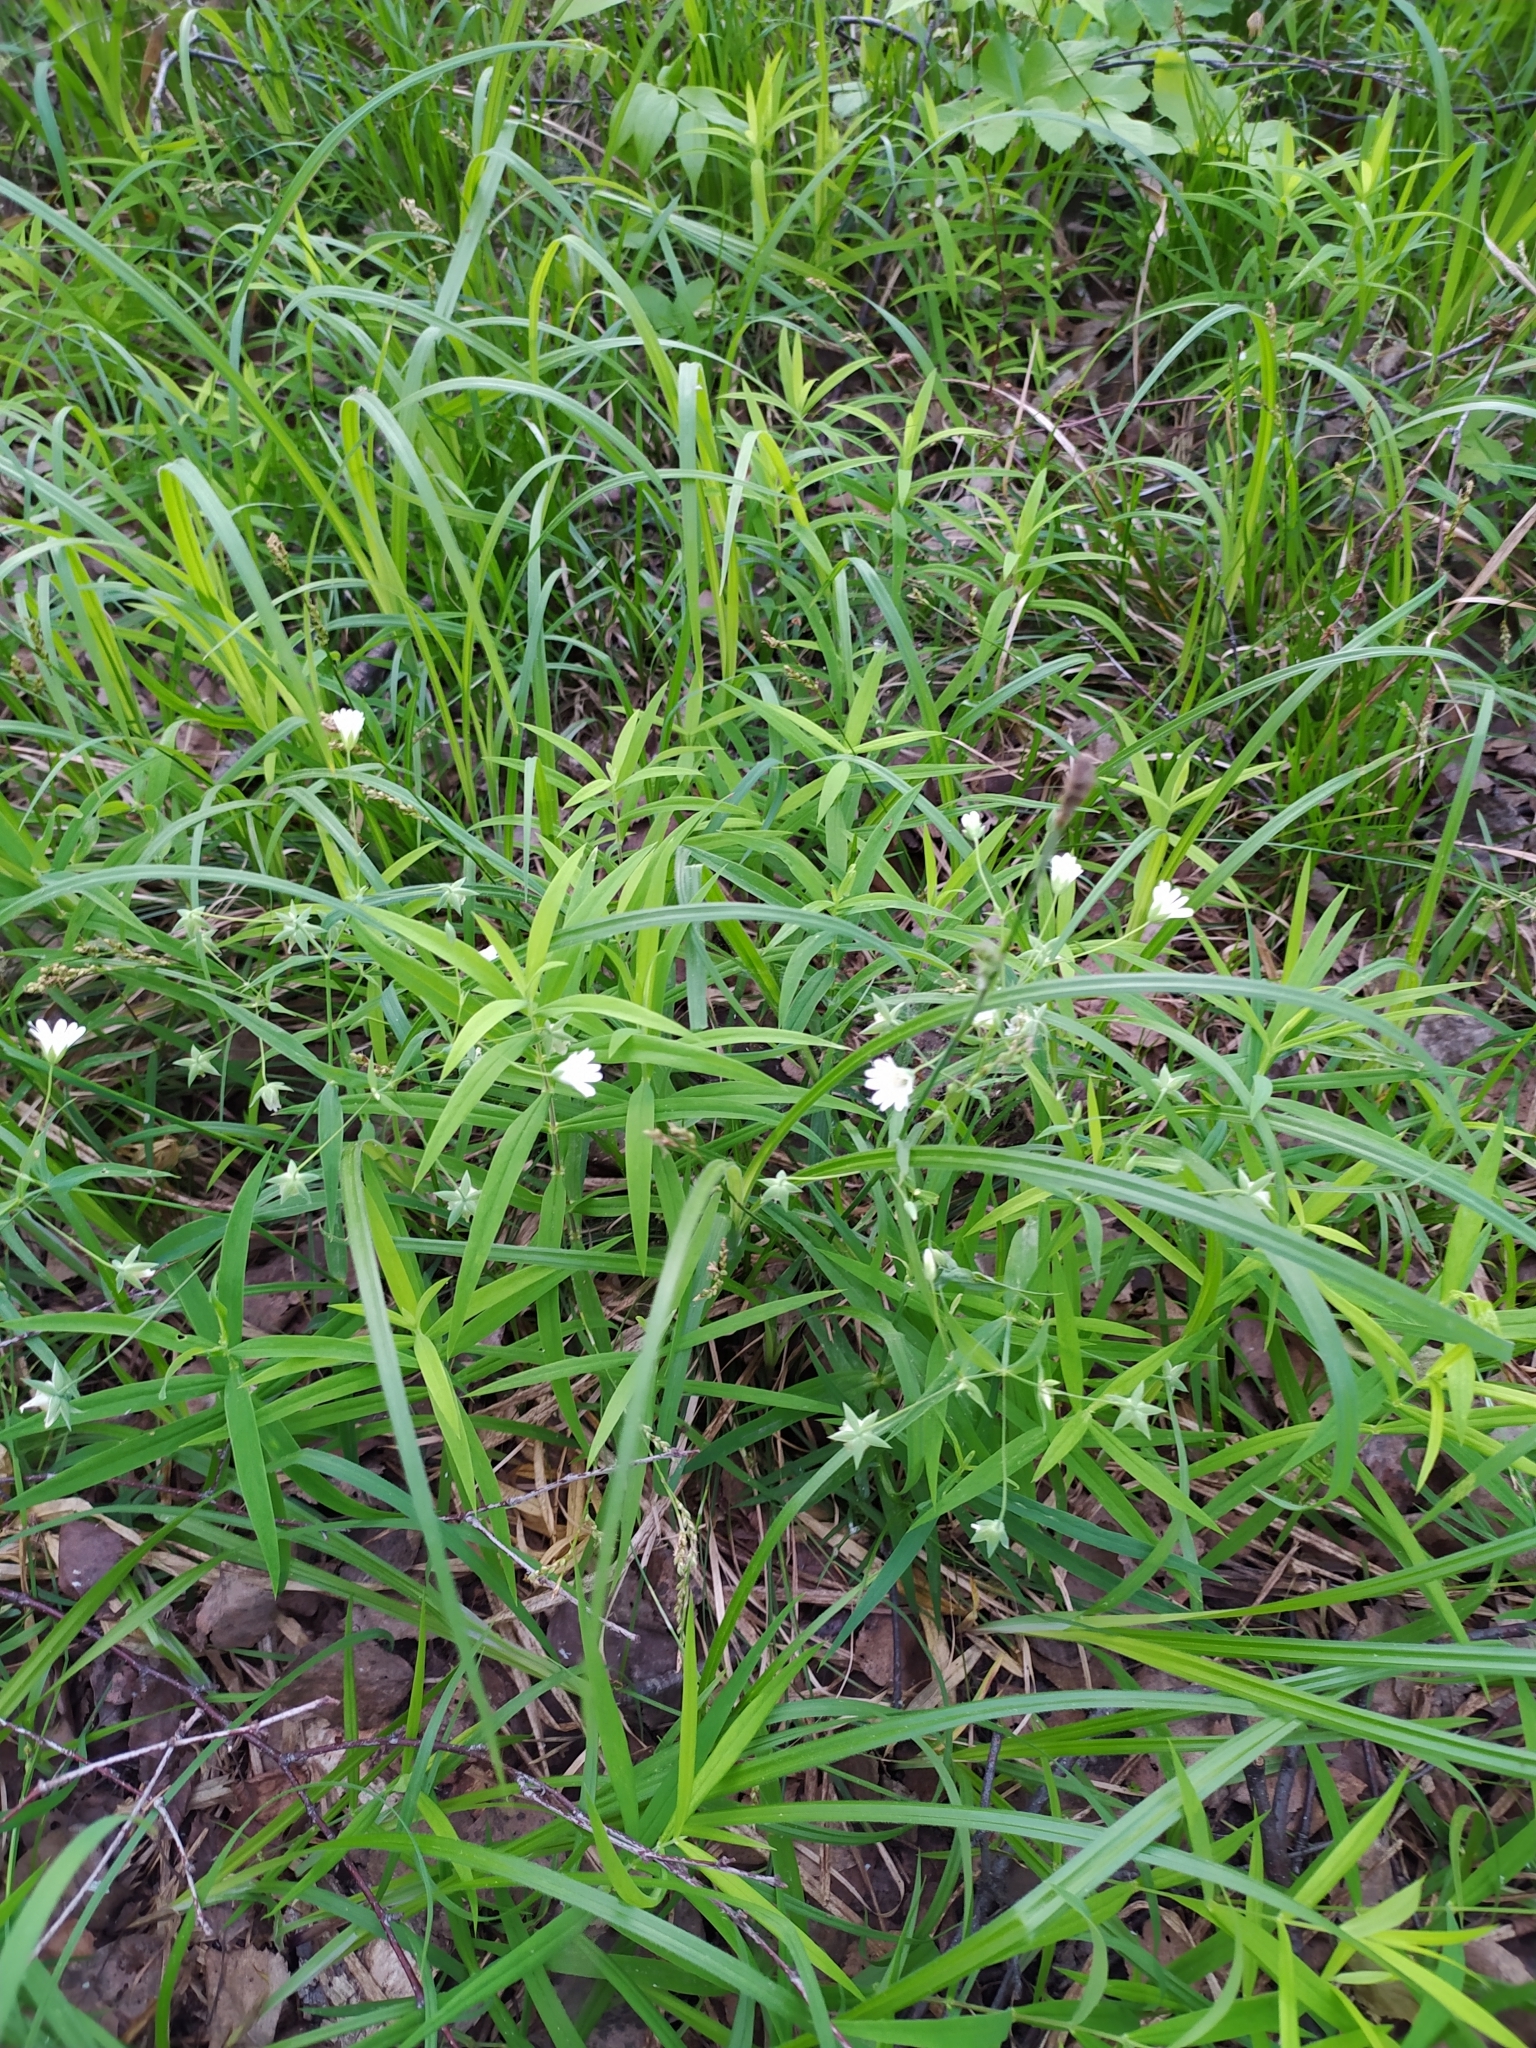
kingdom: Plantae
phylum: Tracheophyta
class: Magnoliopsida
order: Caryophyllales
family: Caryophyllaceae
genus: Rabelera
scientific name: Rabelera holostea
